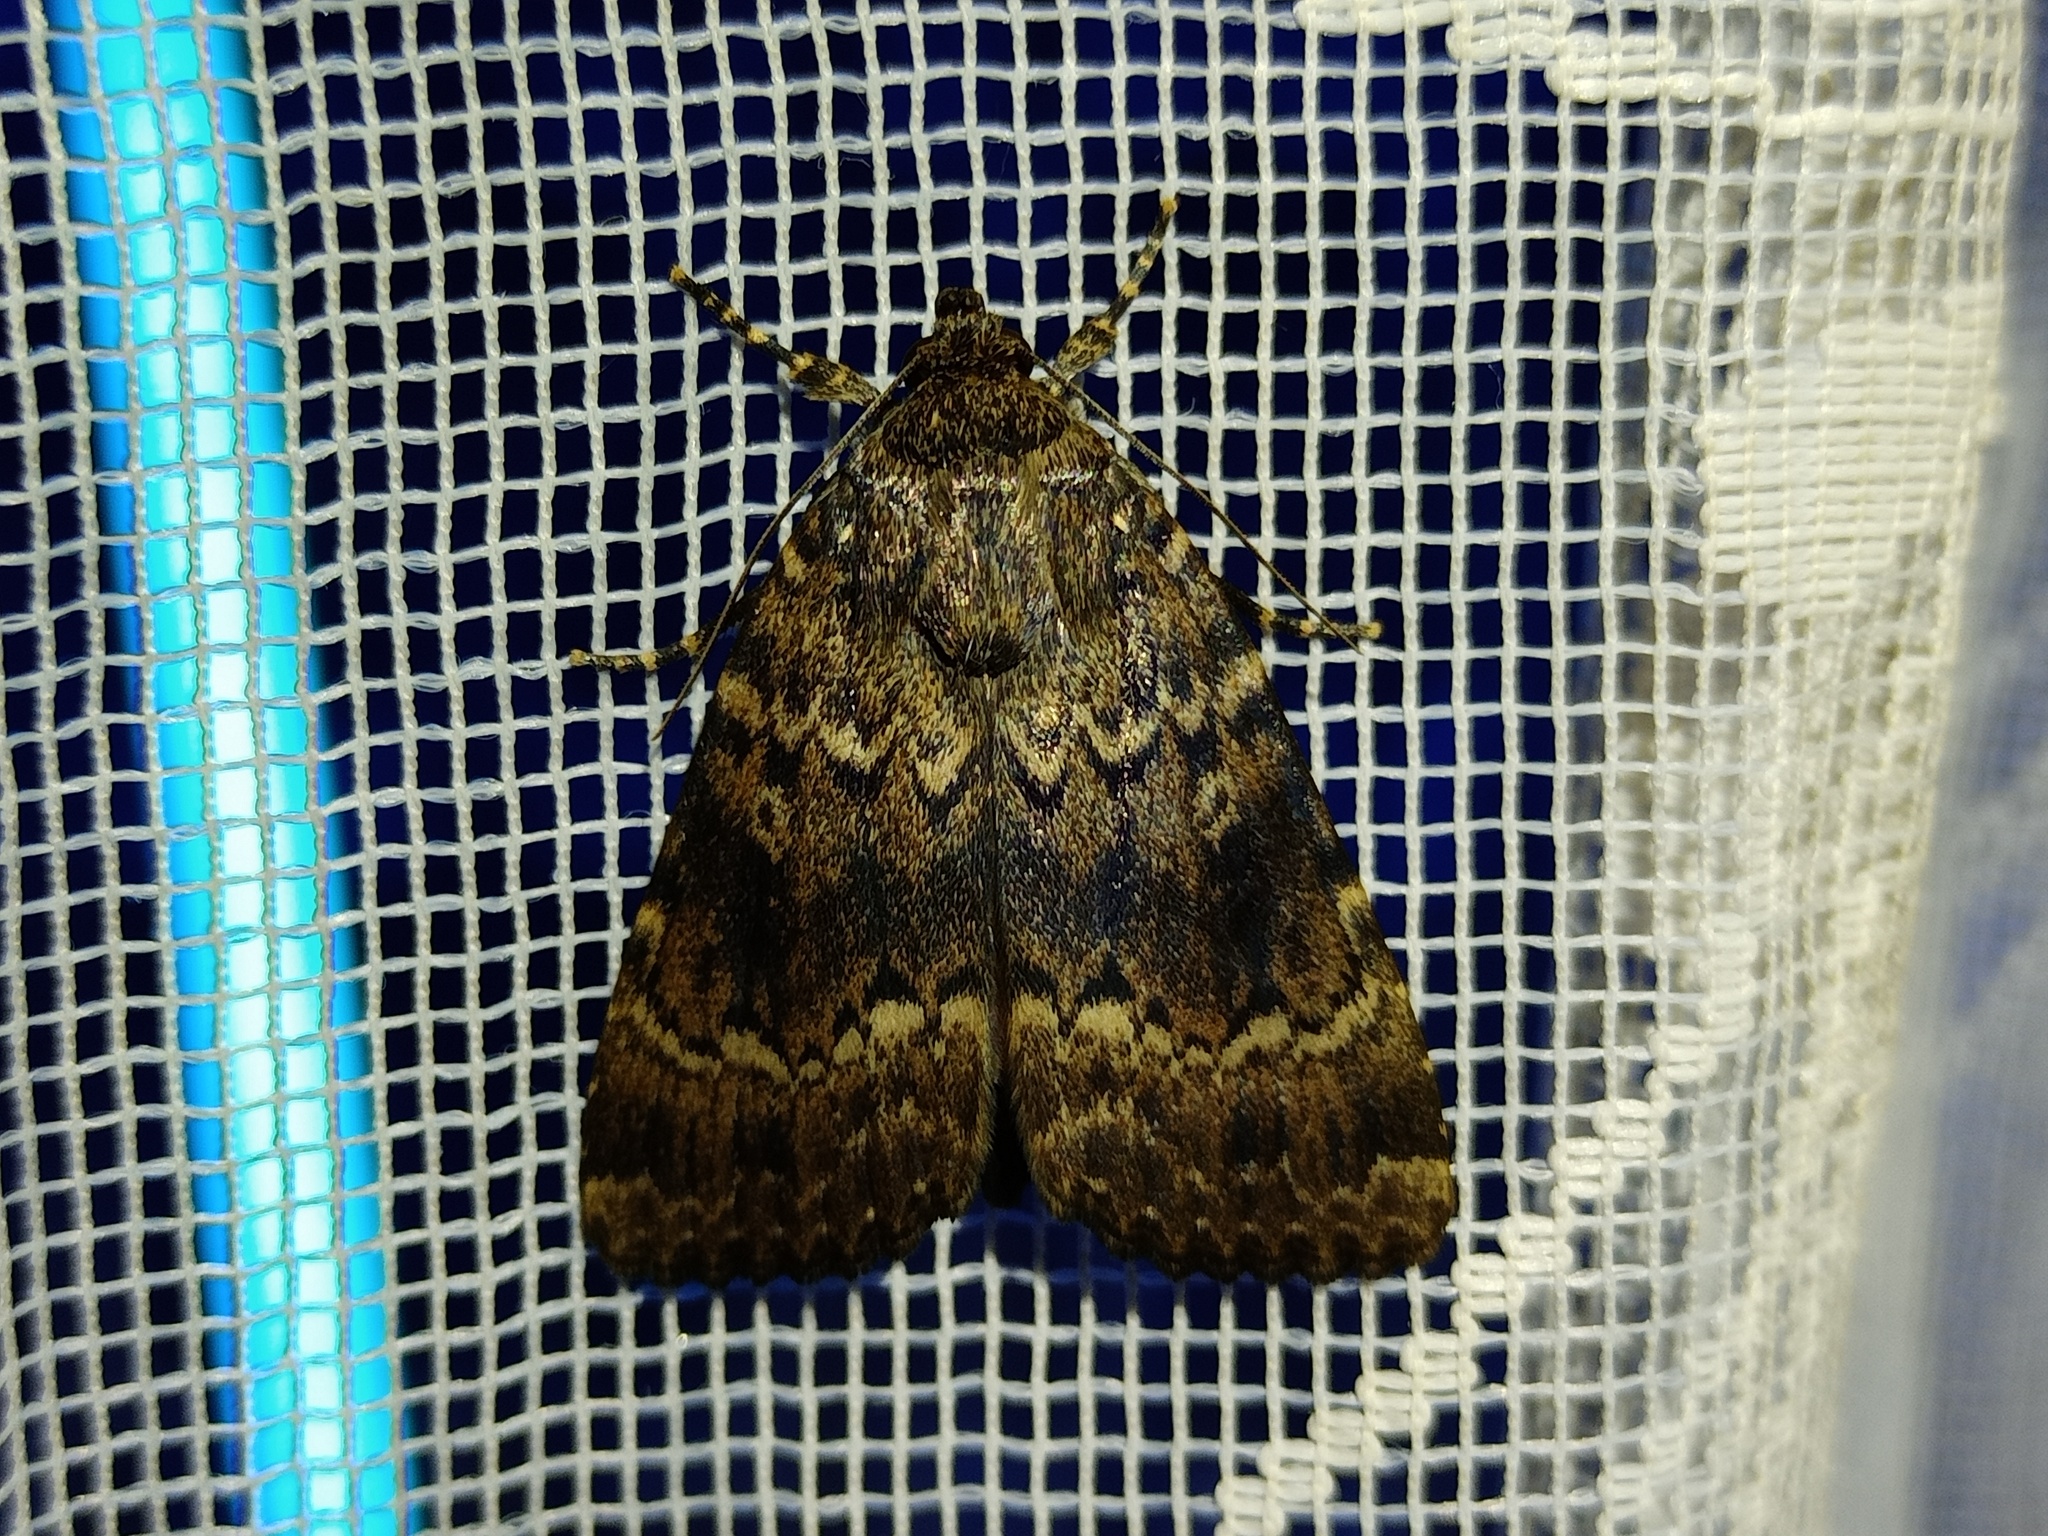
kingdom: Animalia
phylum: Arthropoda
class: Insecta
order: Lepidoptera
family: Noctuidae
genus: Amphipyra
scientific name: Amphipyra berbera
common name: Svensson's copper underwing
